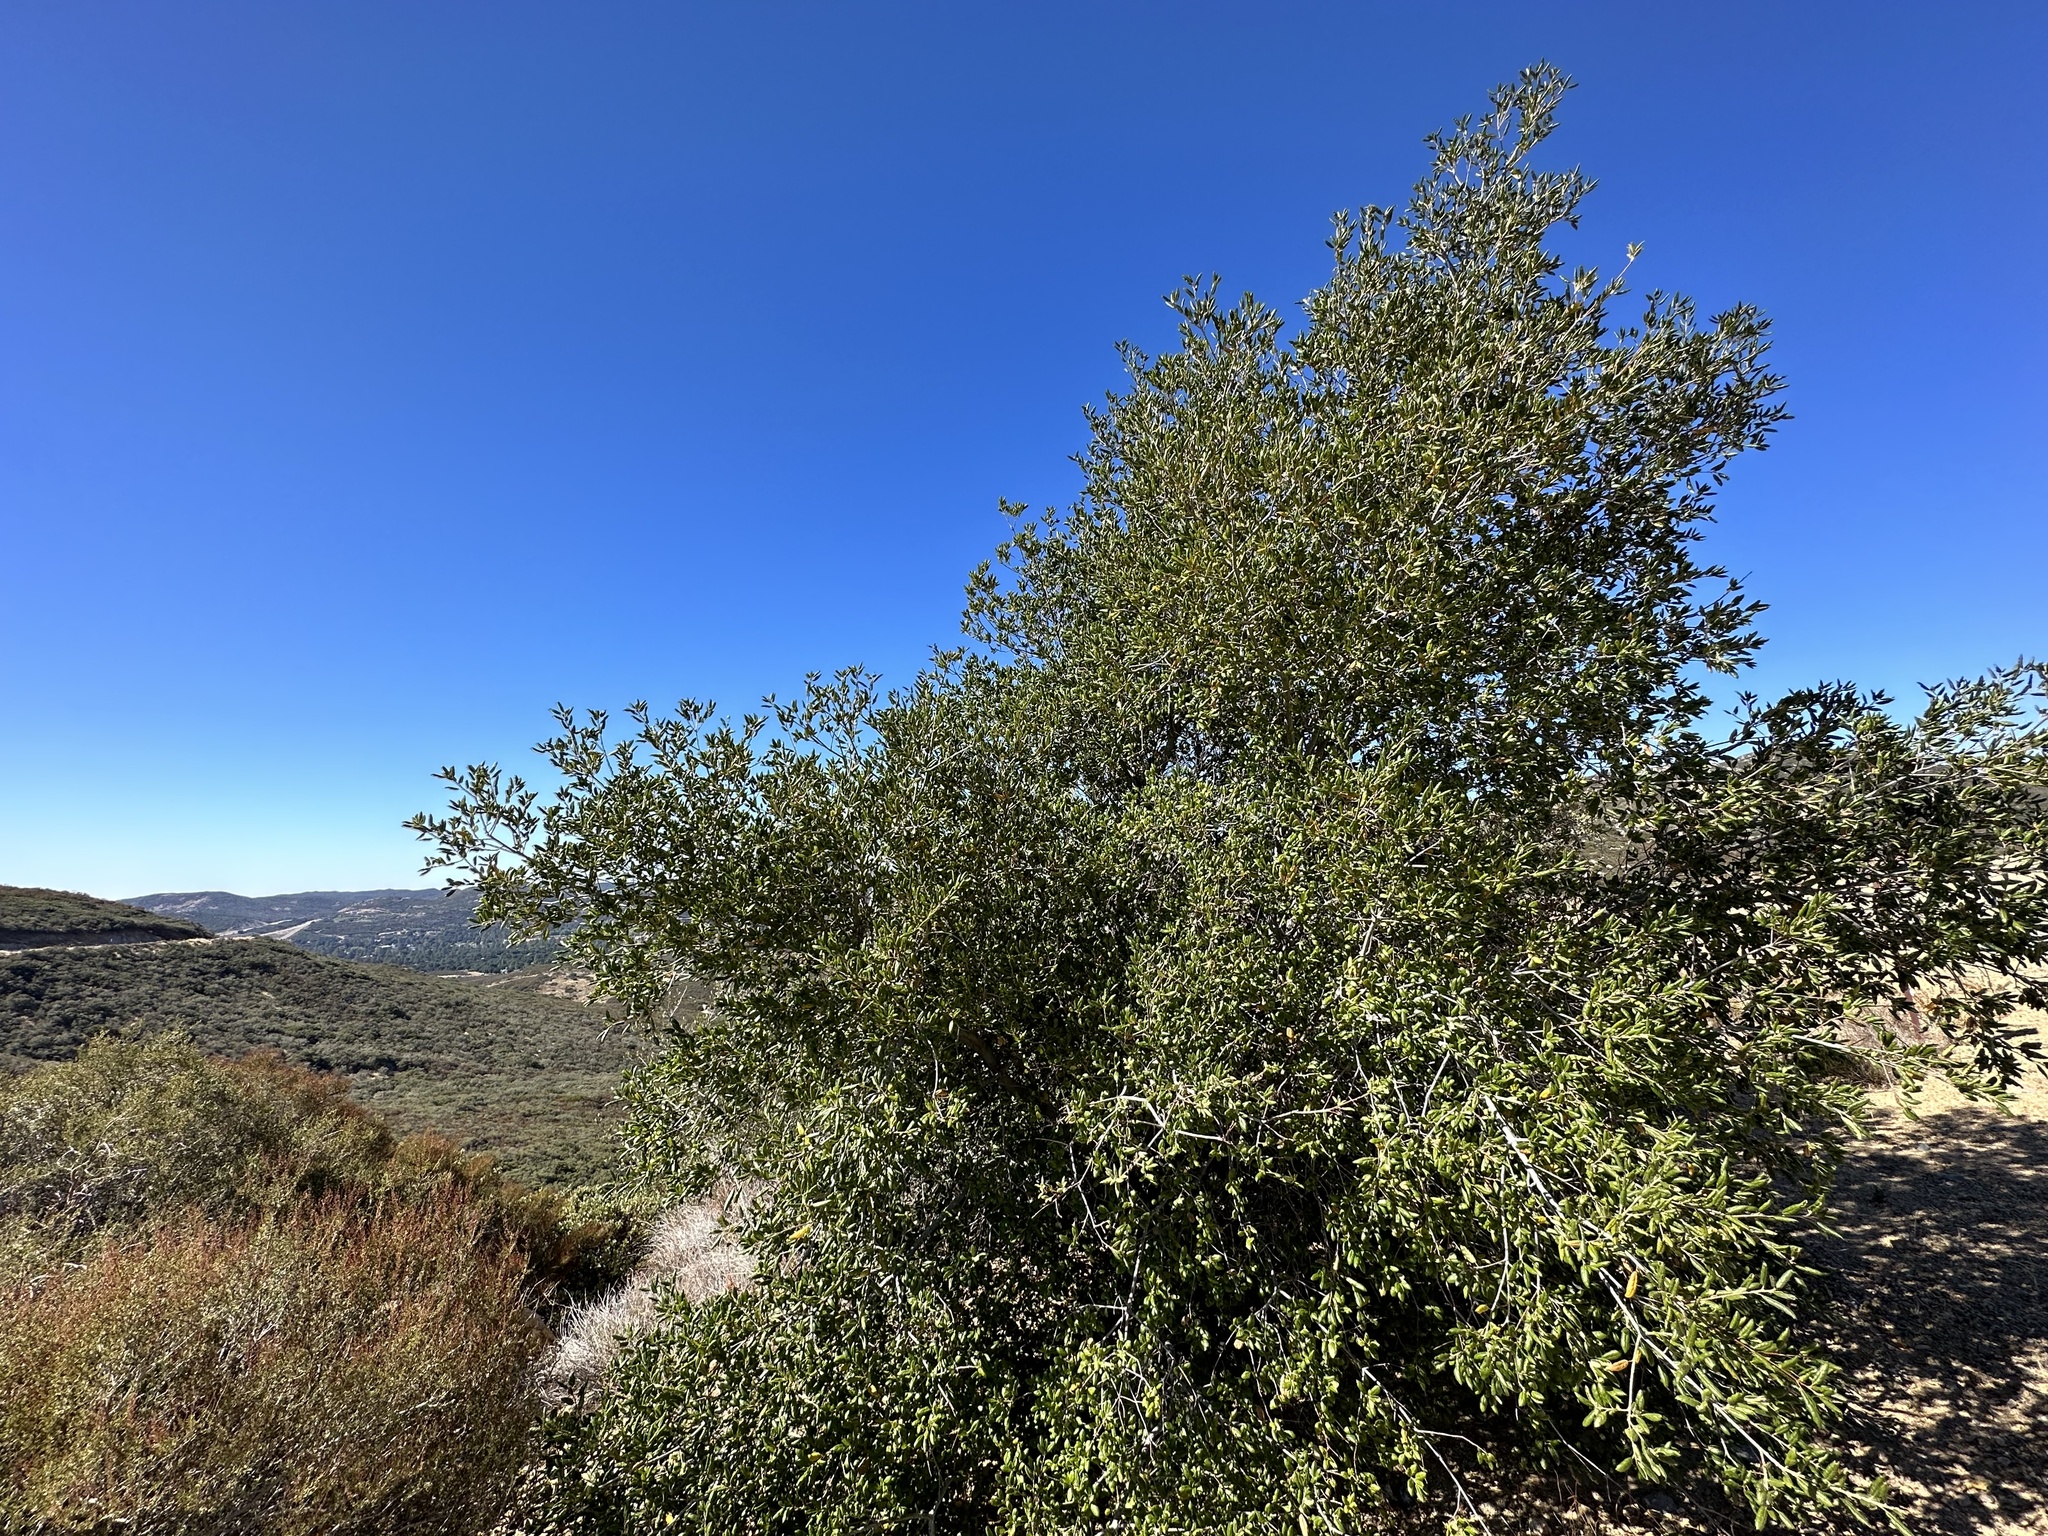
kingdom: Plantae
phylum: Tracheophyta
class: Magnoliopsida
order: Fagales
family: Fagaceae
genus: Quercus
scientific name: Quercus agrifolia
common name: California live oak
